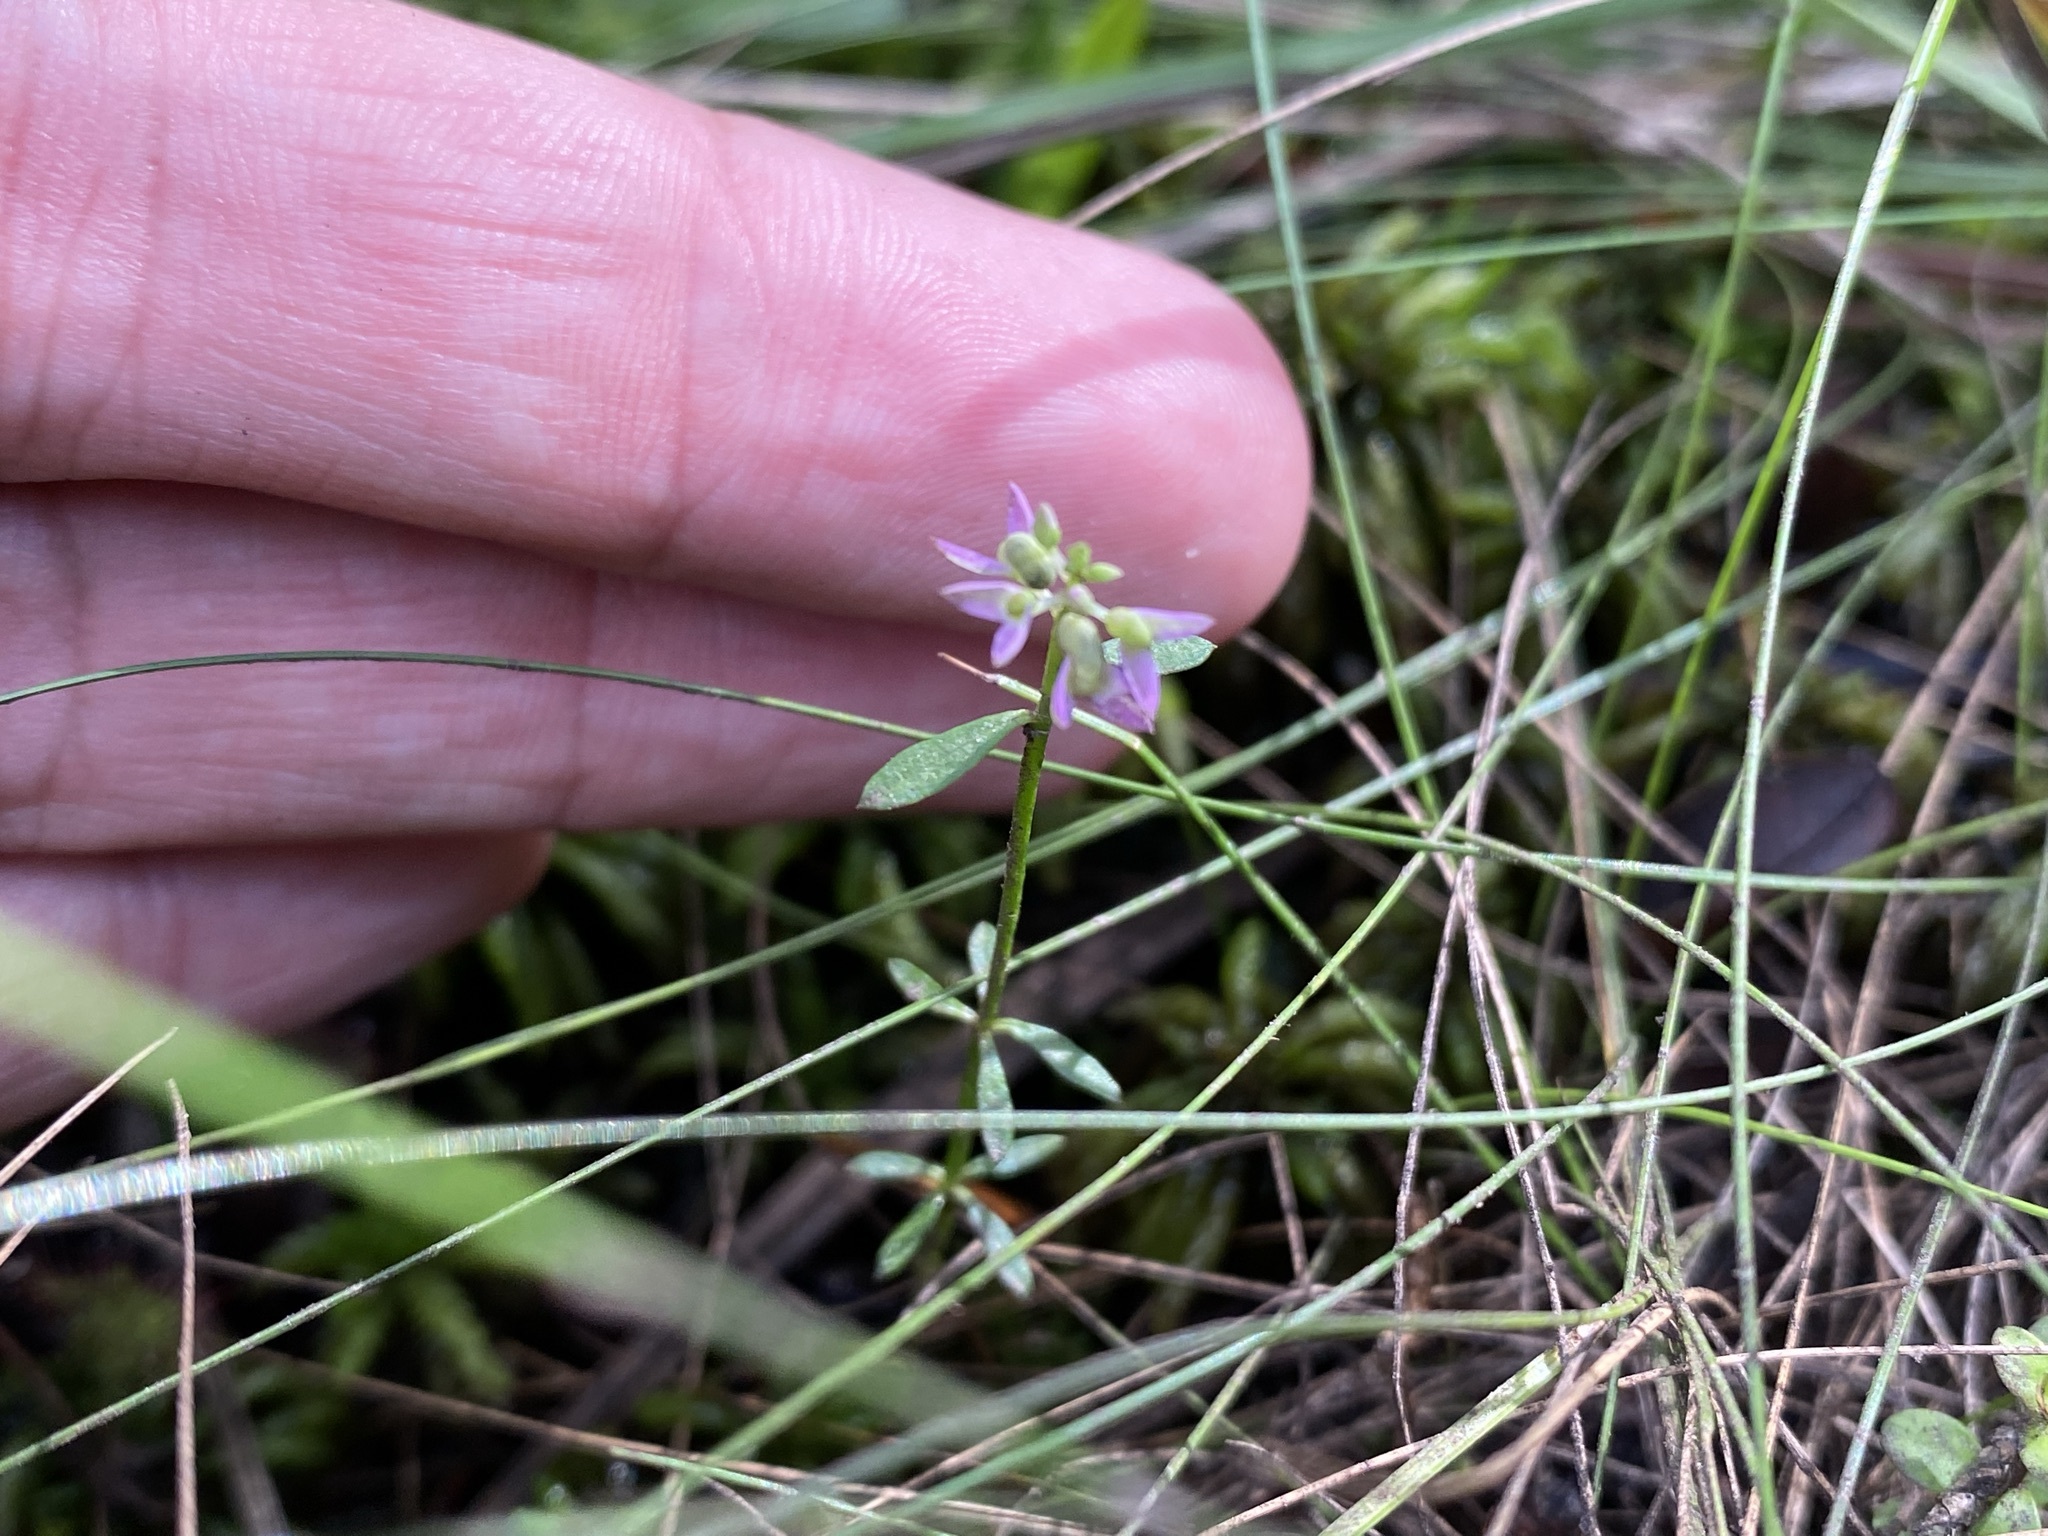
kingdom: Plantae
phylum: Tracheophyta
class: Magnoliopsida
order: Fabales
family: Polygalaceae
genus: Polygala
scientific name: Polygala hookeri
